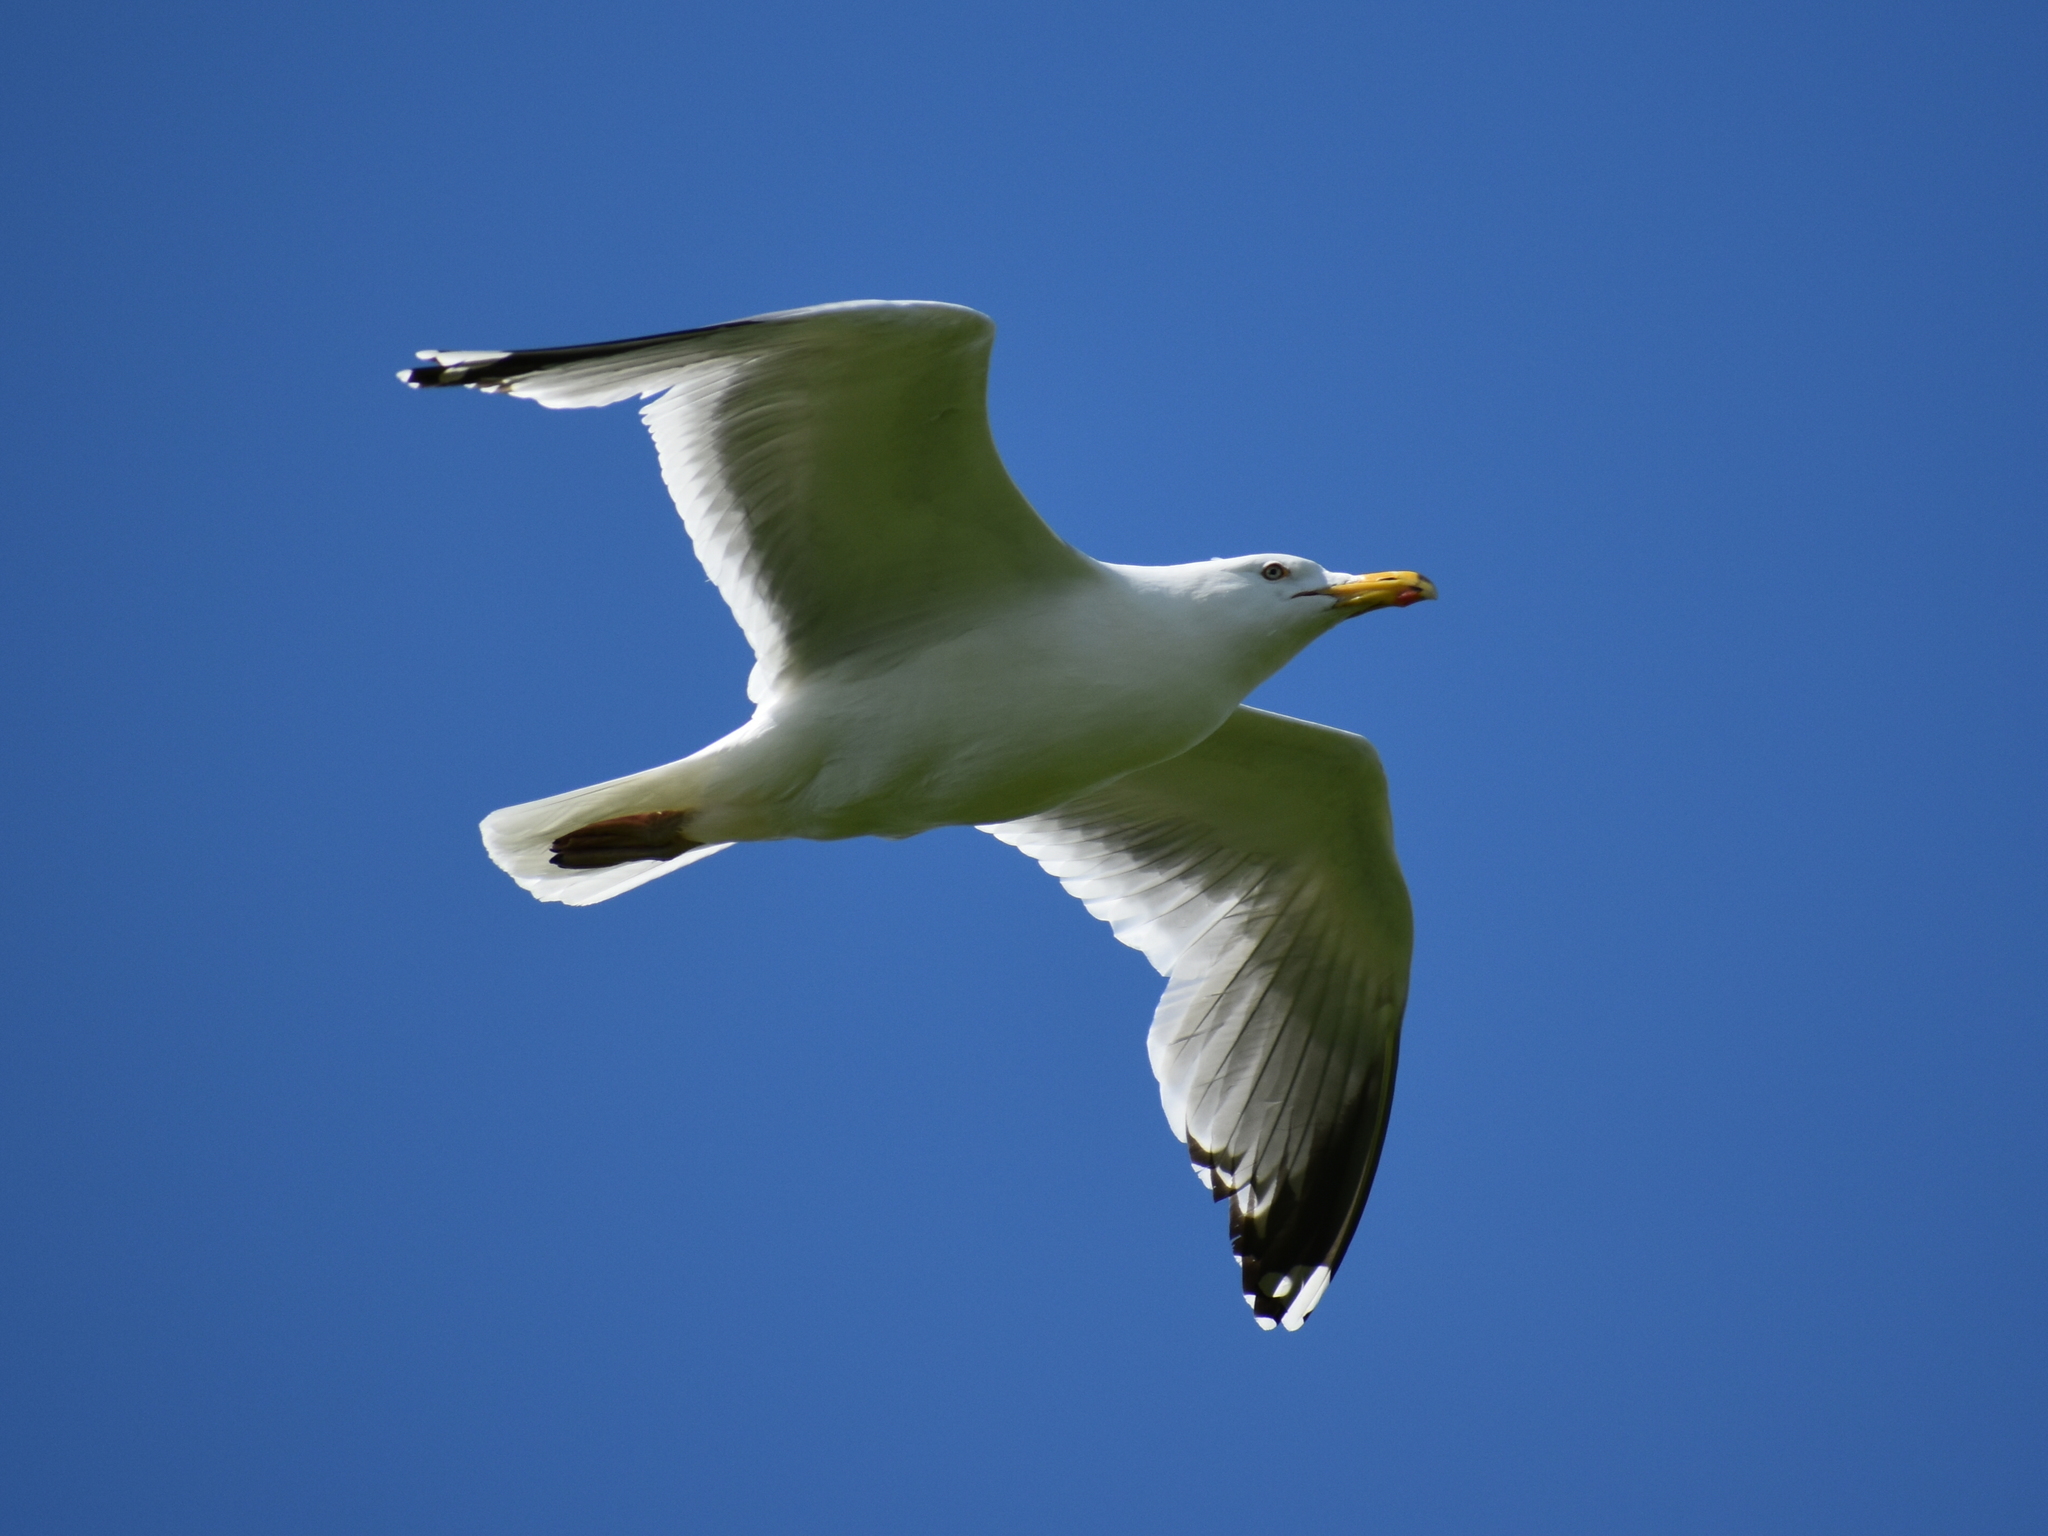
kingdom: Animalia
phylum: Chordata
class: Aves
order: Charadriiformes
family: Laridae
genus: Larus
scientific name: Larus argentatus
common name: Herring gull
